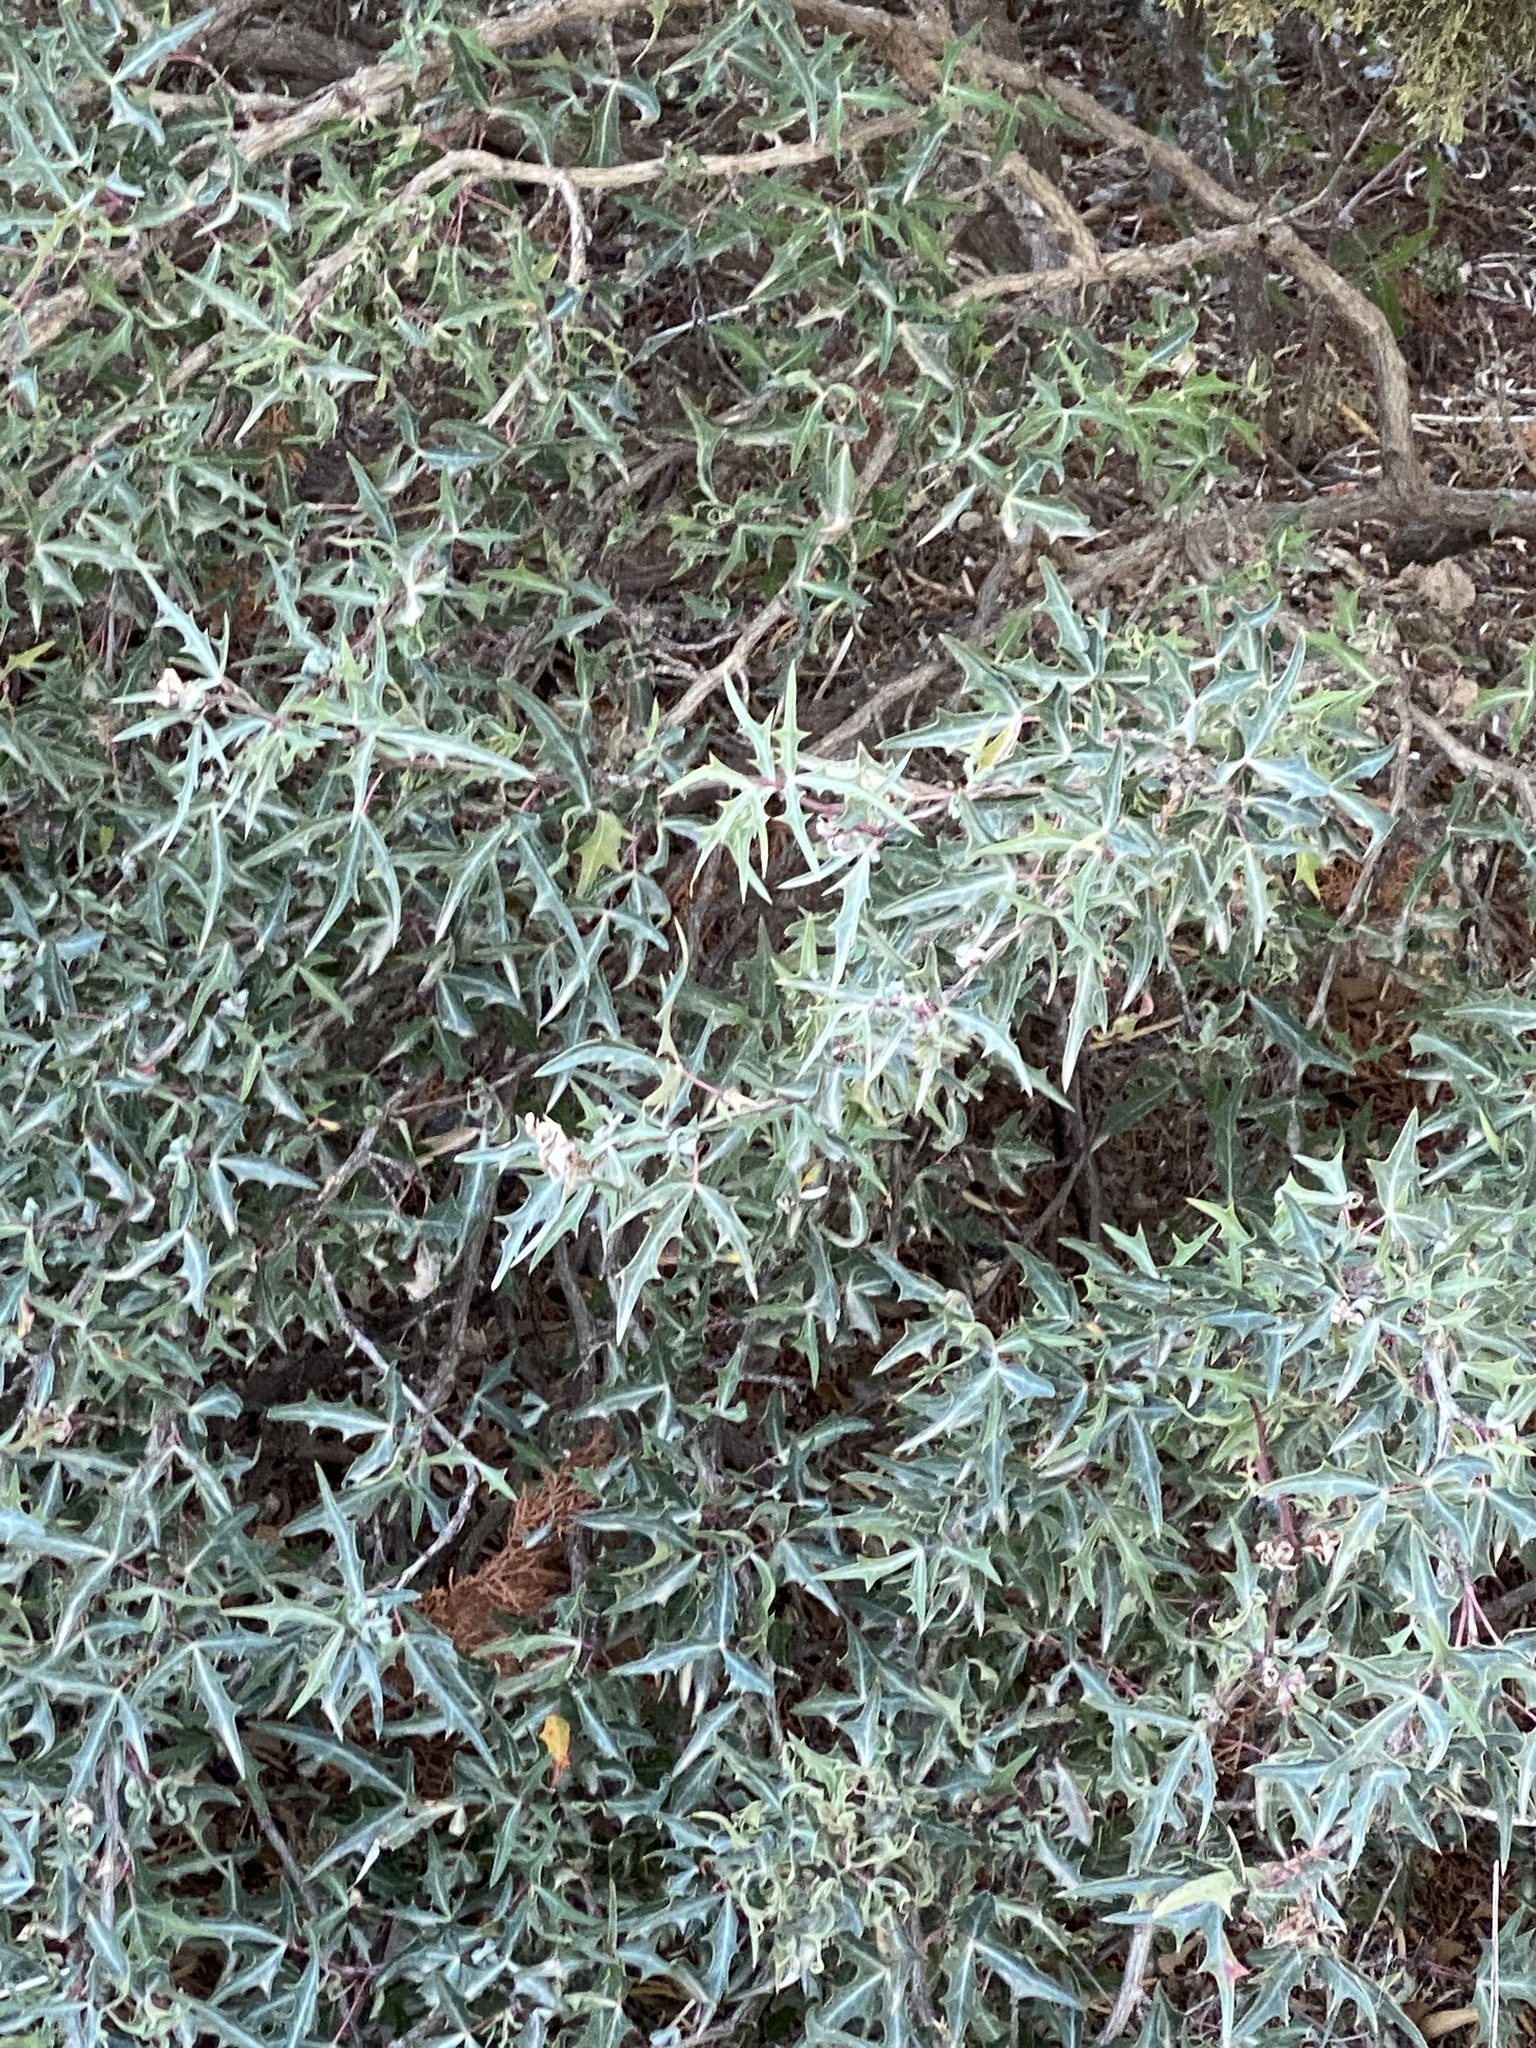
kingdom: Plantae
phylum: Tracheophyta
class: Magnoliopsida
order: Ranunculales
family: Berberidaceae
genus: Alloberberis
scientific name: Alloberberis trifoliolata
